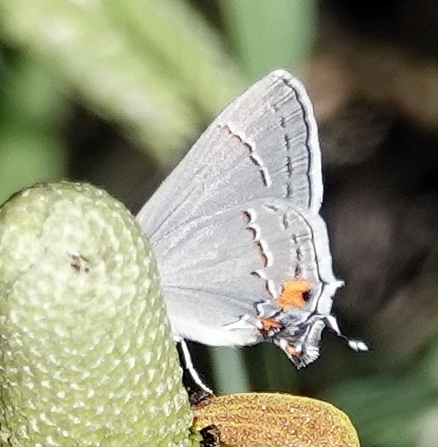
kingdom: Animalia
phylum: Arthropoda
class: Insecta
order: Lepidoptera
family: Lycaenidae
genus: Strymon
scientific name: Strymon melinus
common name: Gray hairstreak
